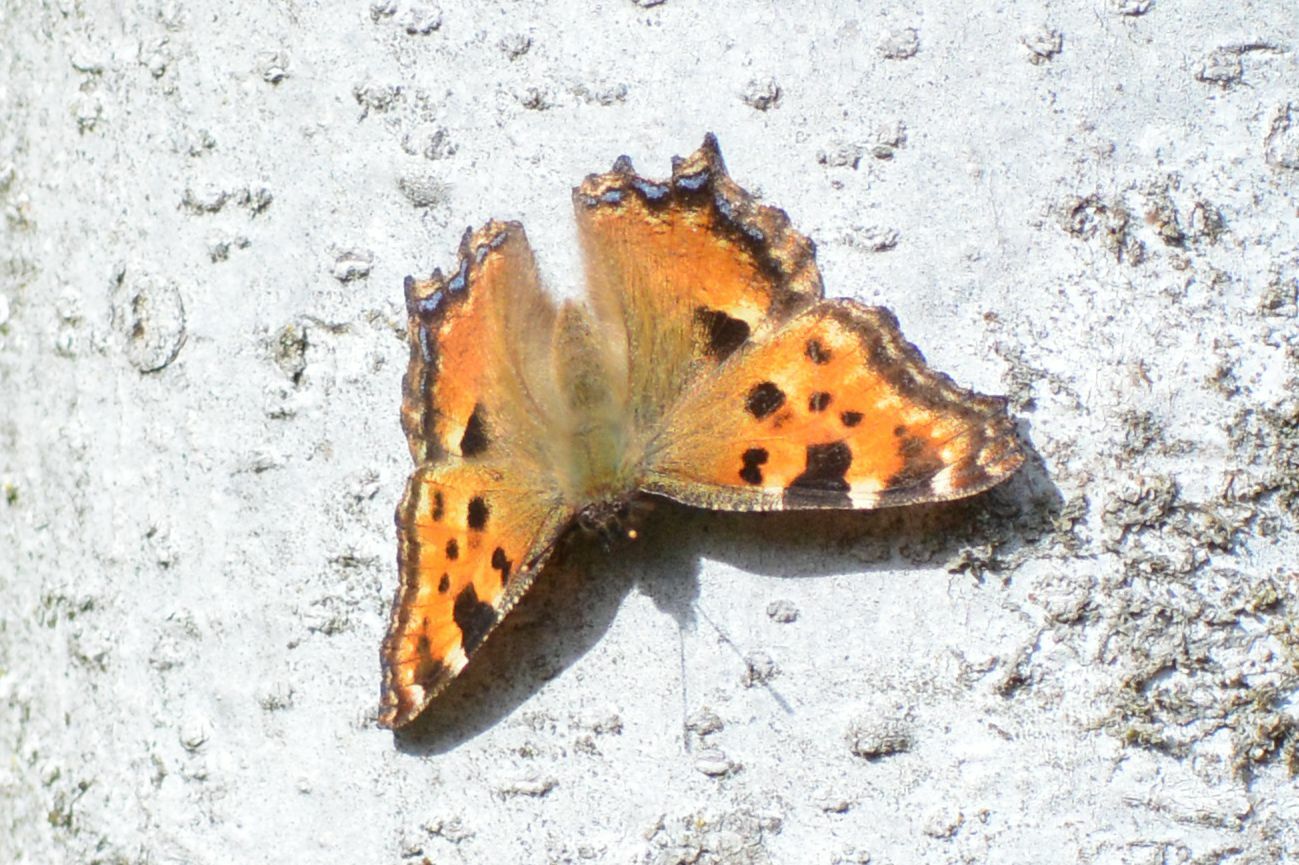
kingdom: Animalia
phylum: Arthropoda
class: Insecta
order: Lepidoptera
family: Nymphalidae
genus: Nymphalis
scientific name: Nymphalis polychloros
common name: Large tortoiseshell
